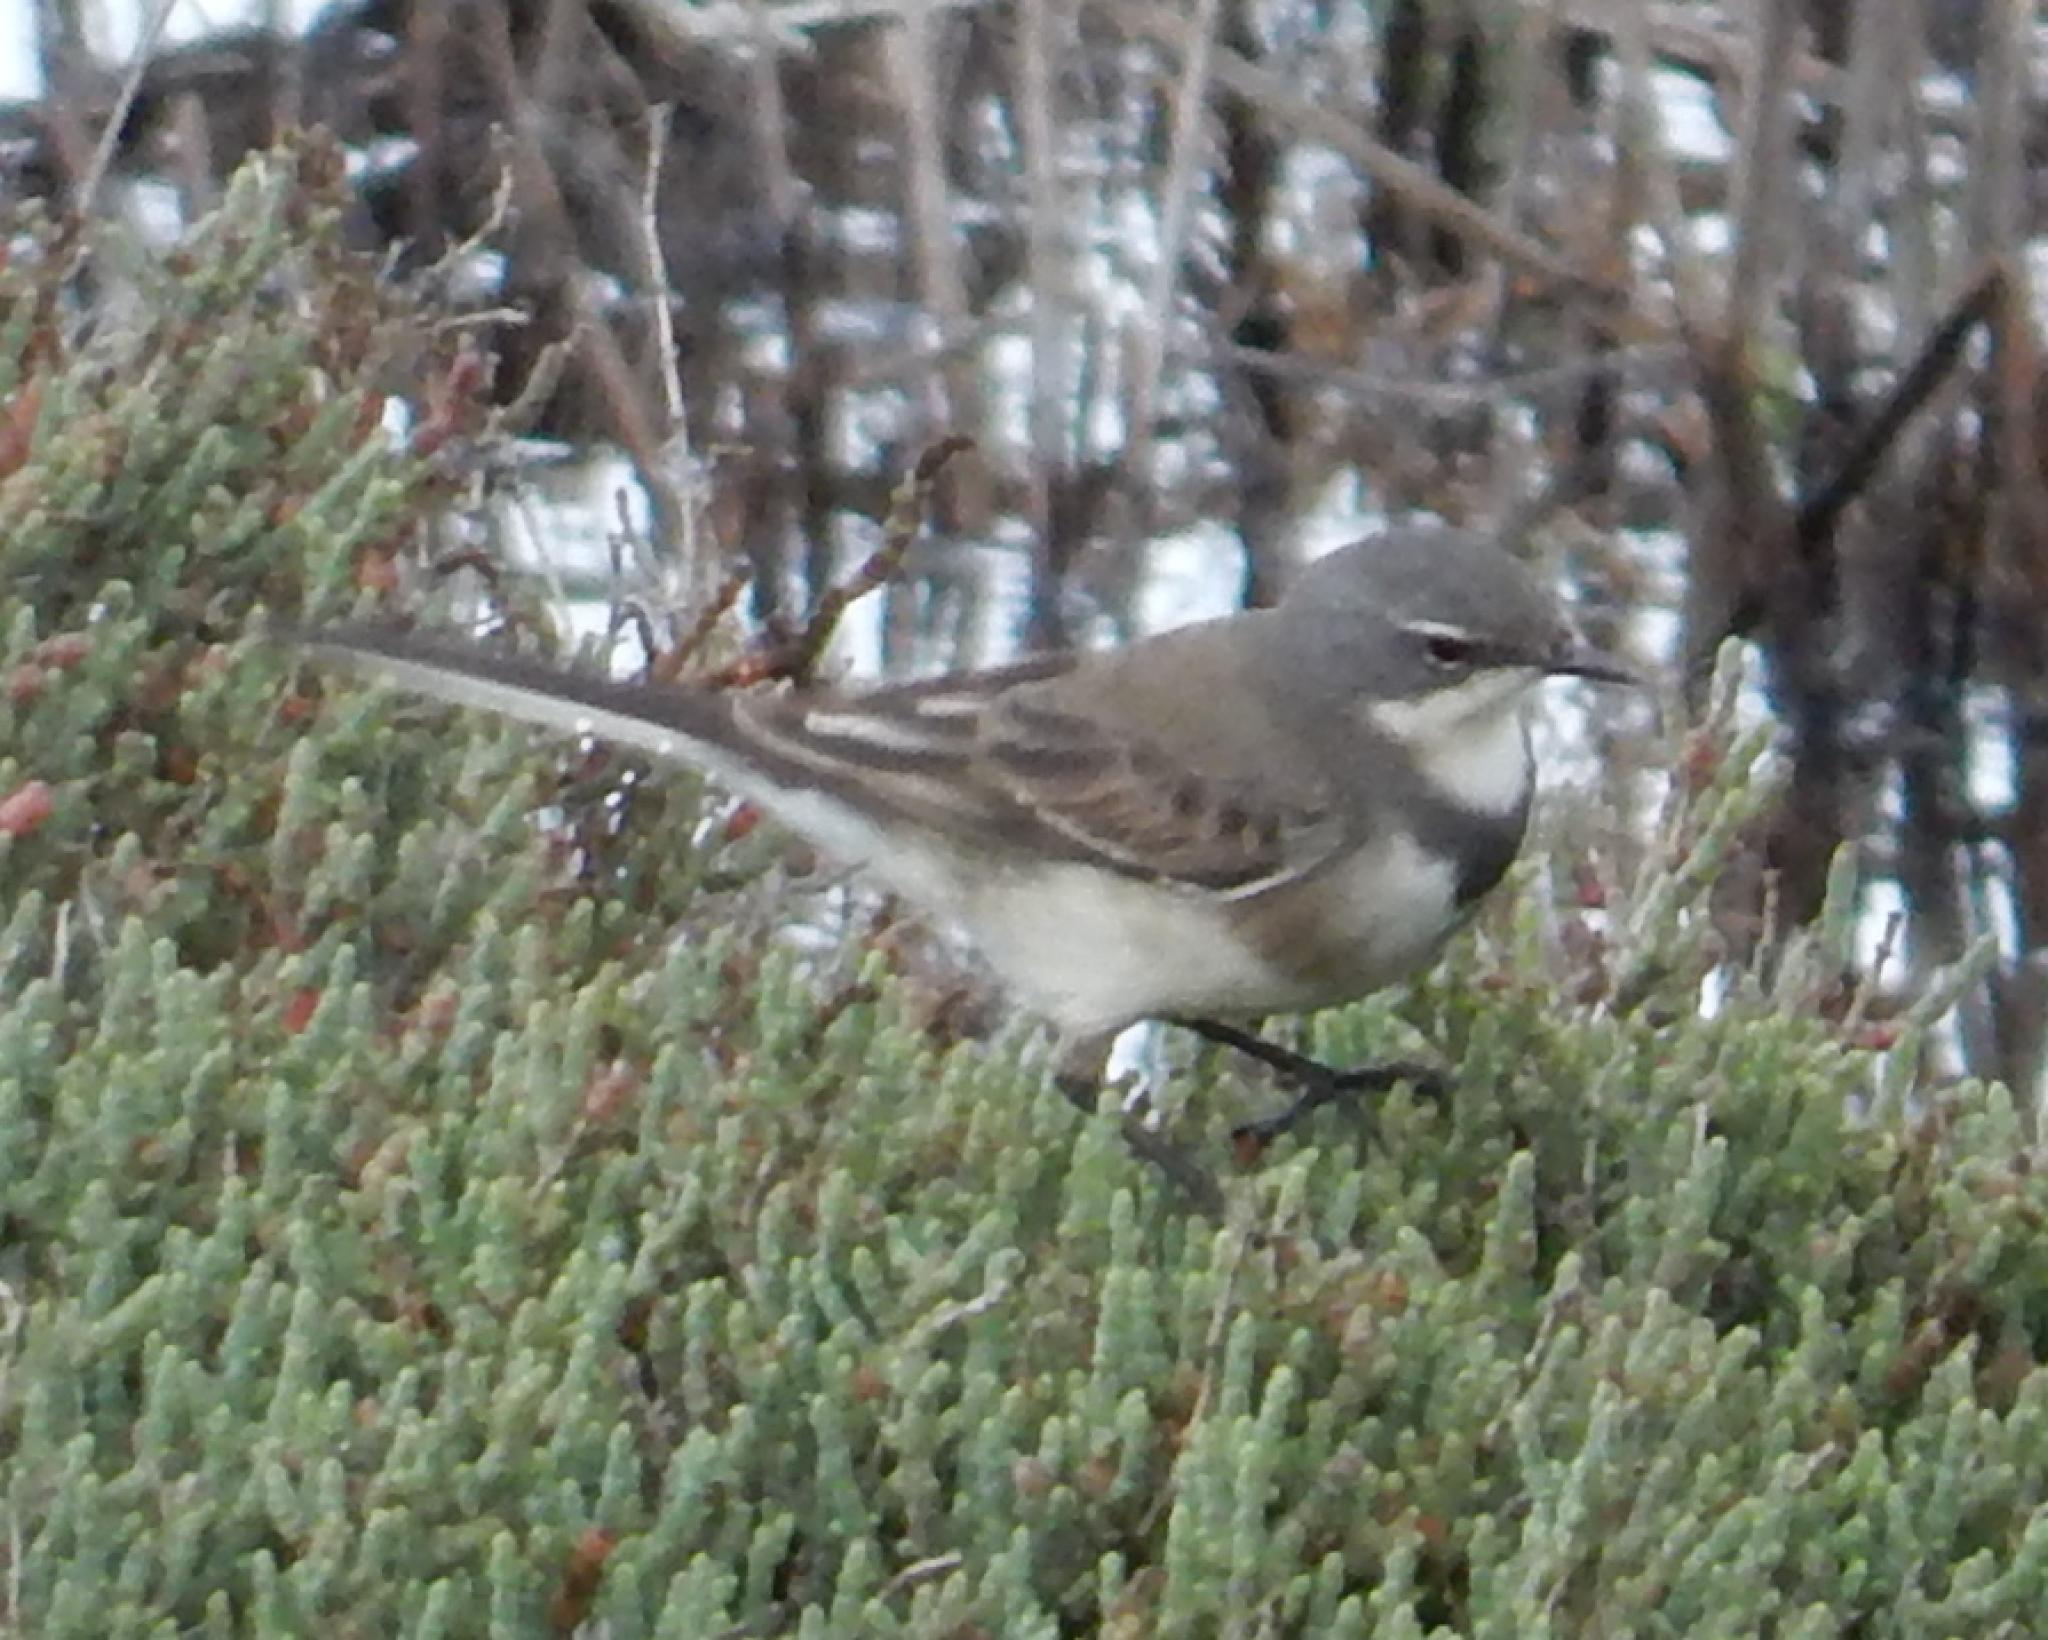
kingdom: Animalia
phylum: Chordata
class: Aves
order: Passeriformes
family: Motacillidae
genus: Motacilla
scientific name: Motacilla capensis
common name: Cape wagtail
